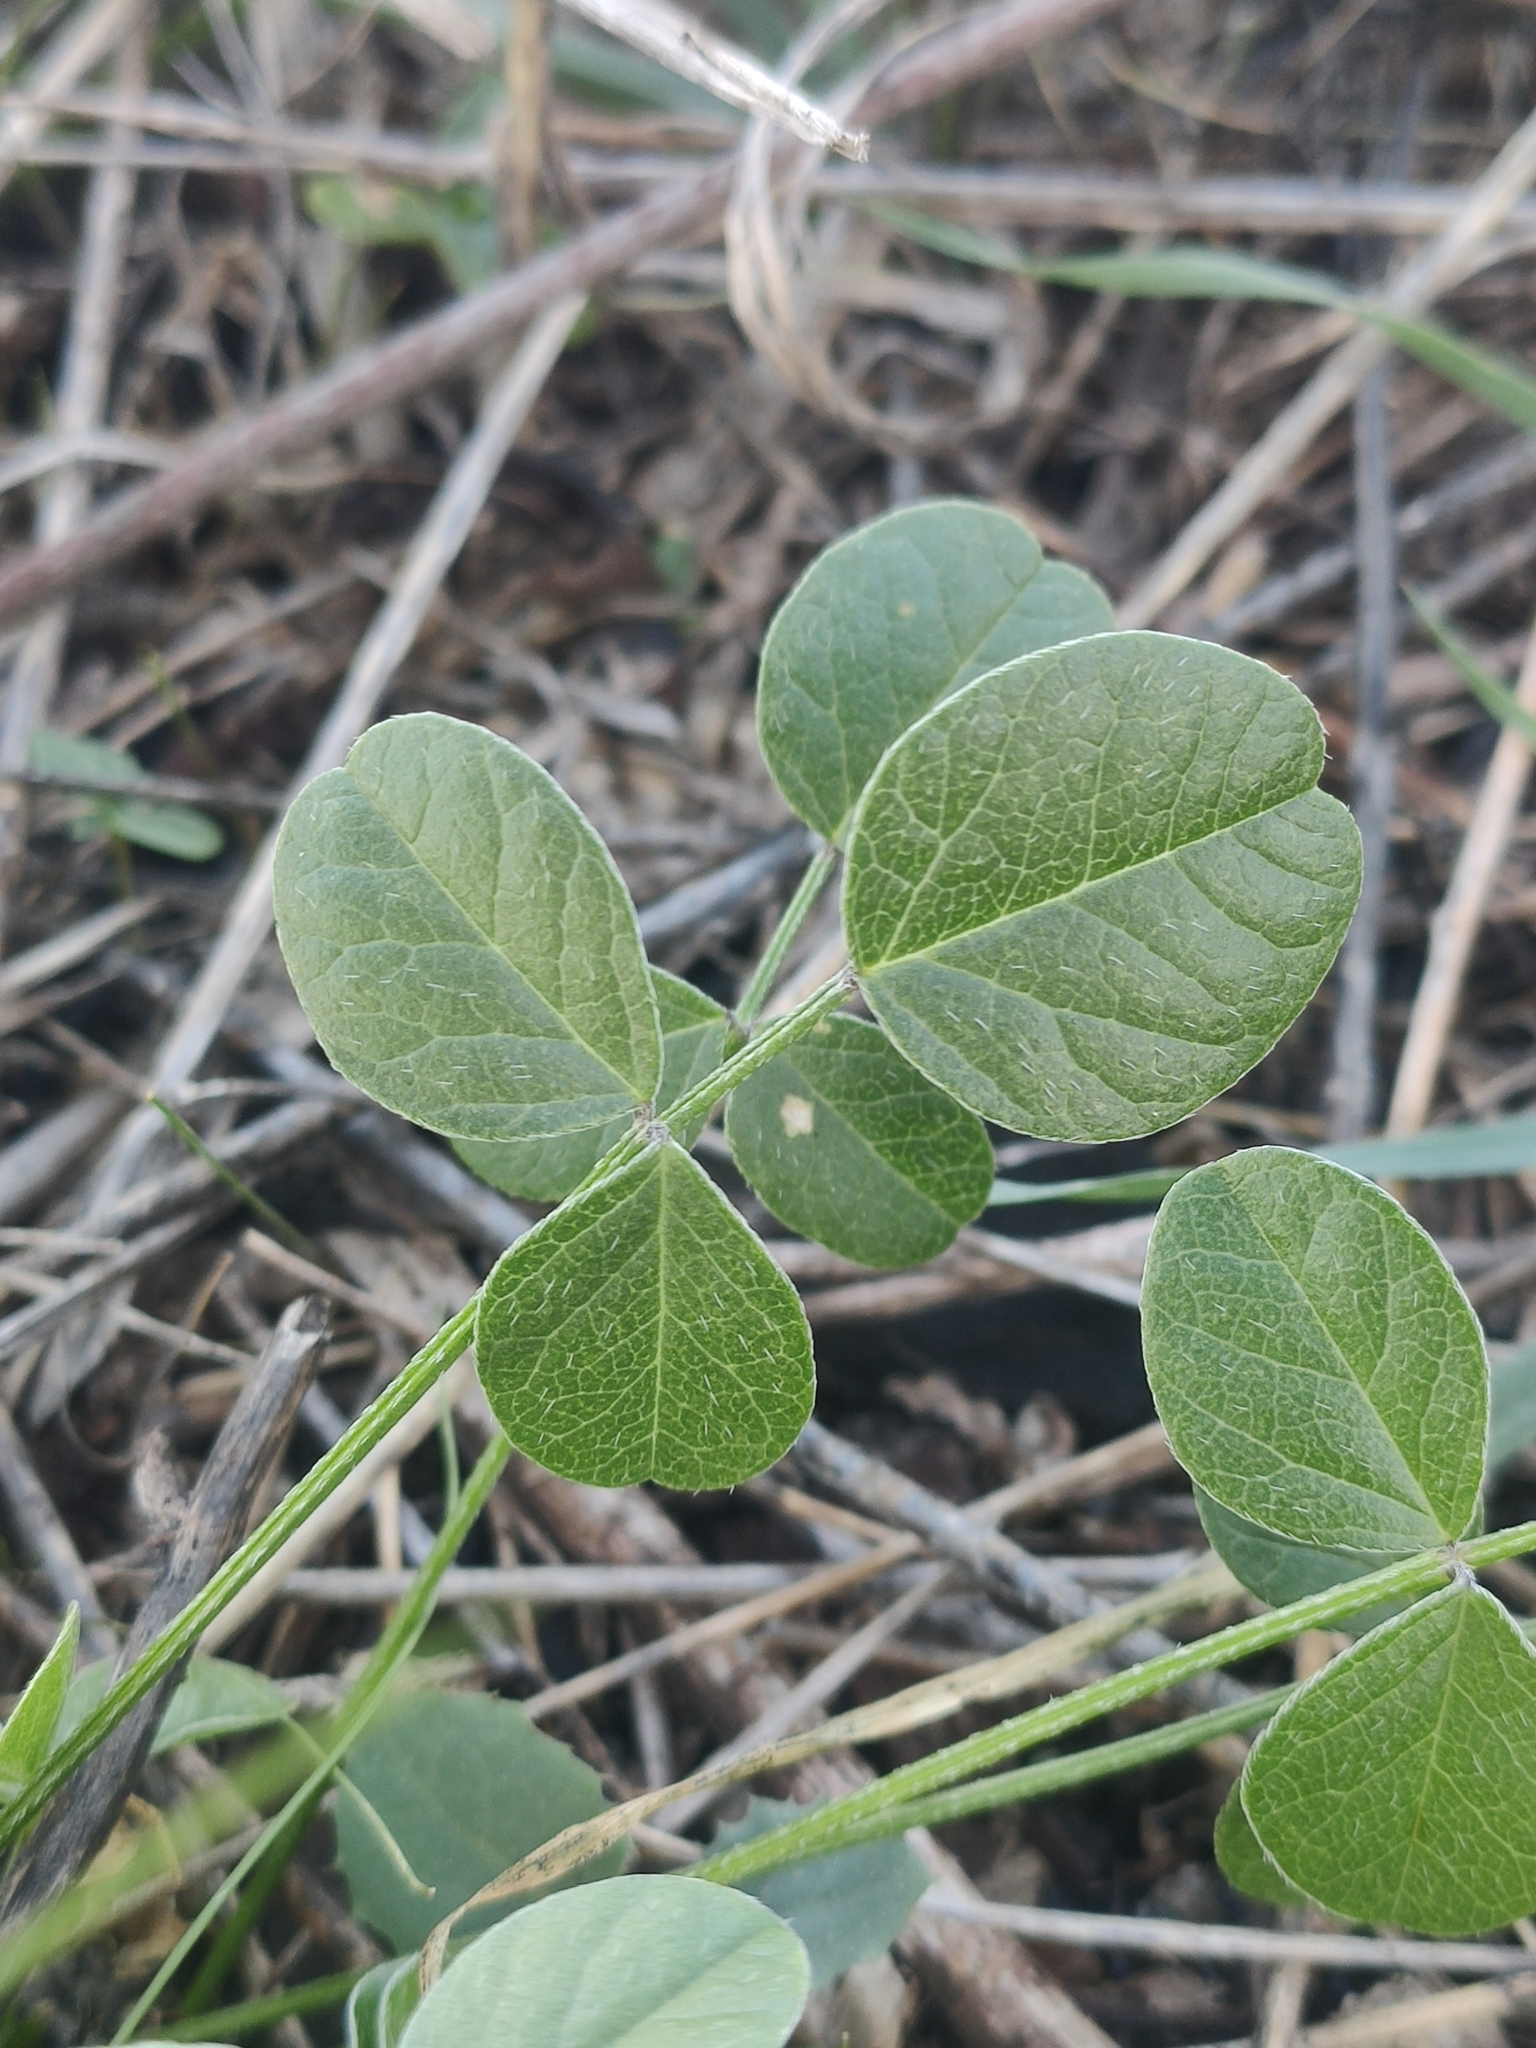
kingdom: Plantae
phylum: Tracheophyta
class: Magnoliopsida
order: Fabales
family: Fabaceae
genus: Bituminaria
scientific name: Bituminaria bituminosa
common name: Arabian pea
